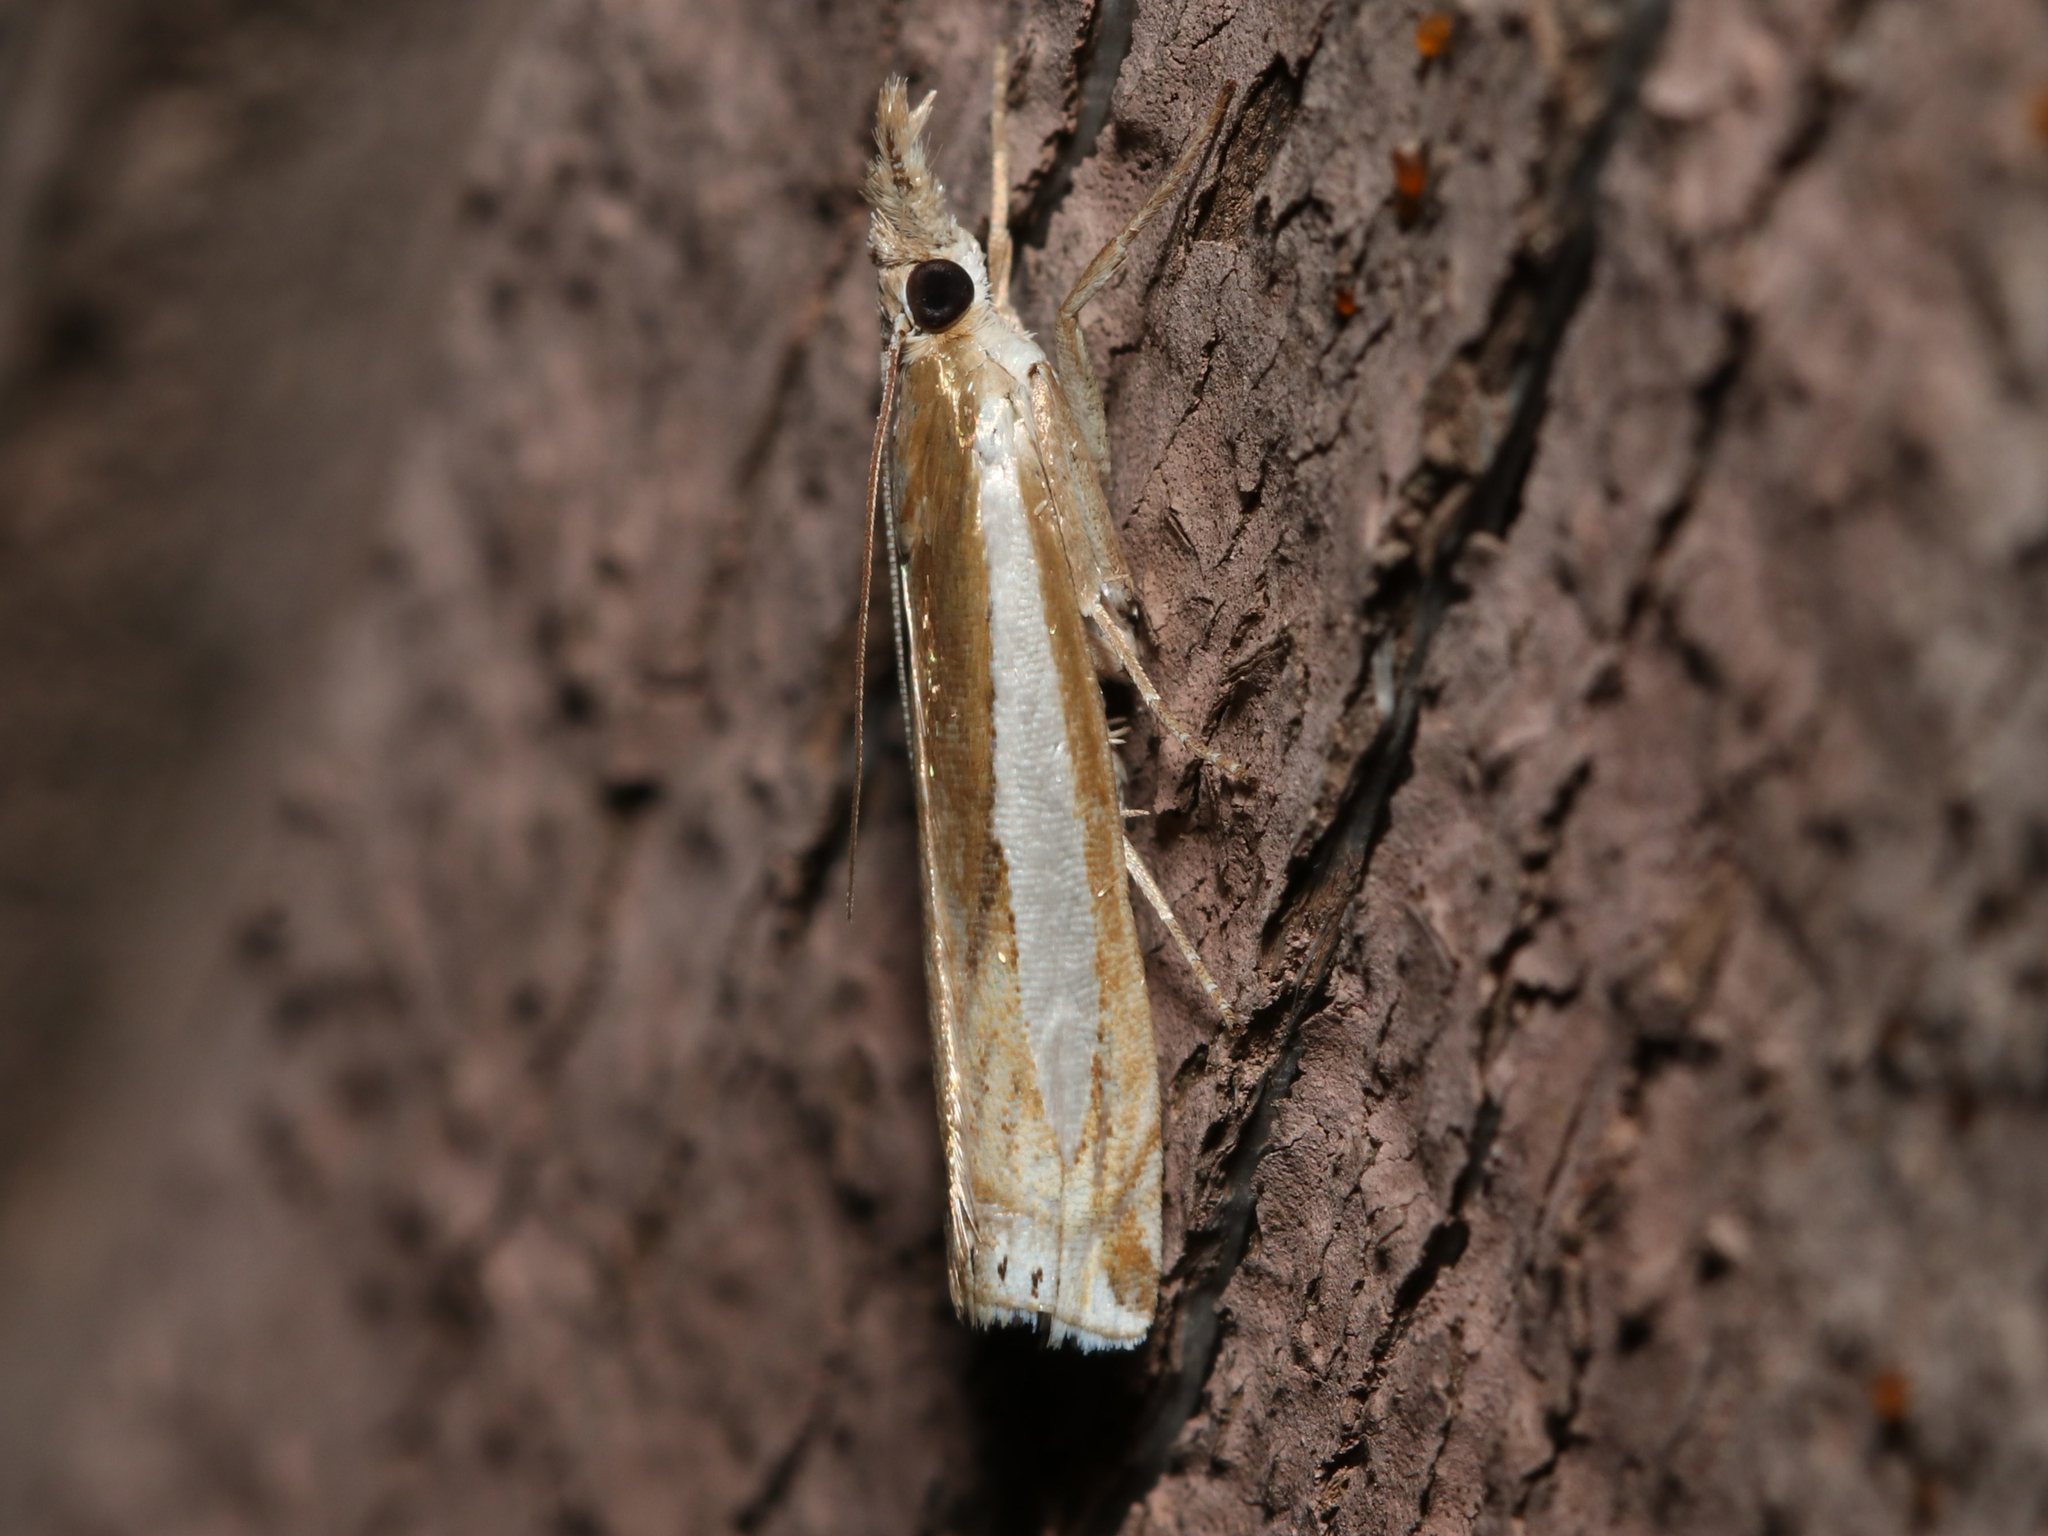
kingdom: Animalia
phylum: Arthropoda
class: Insecta
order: Lepidoptera
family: Crambidae
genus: Crambus
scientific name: Crambus praefectellus
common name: Common grass-veneer
